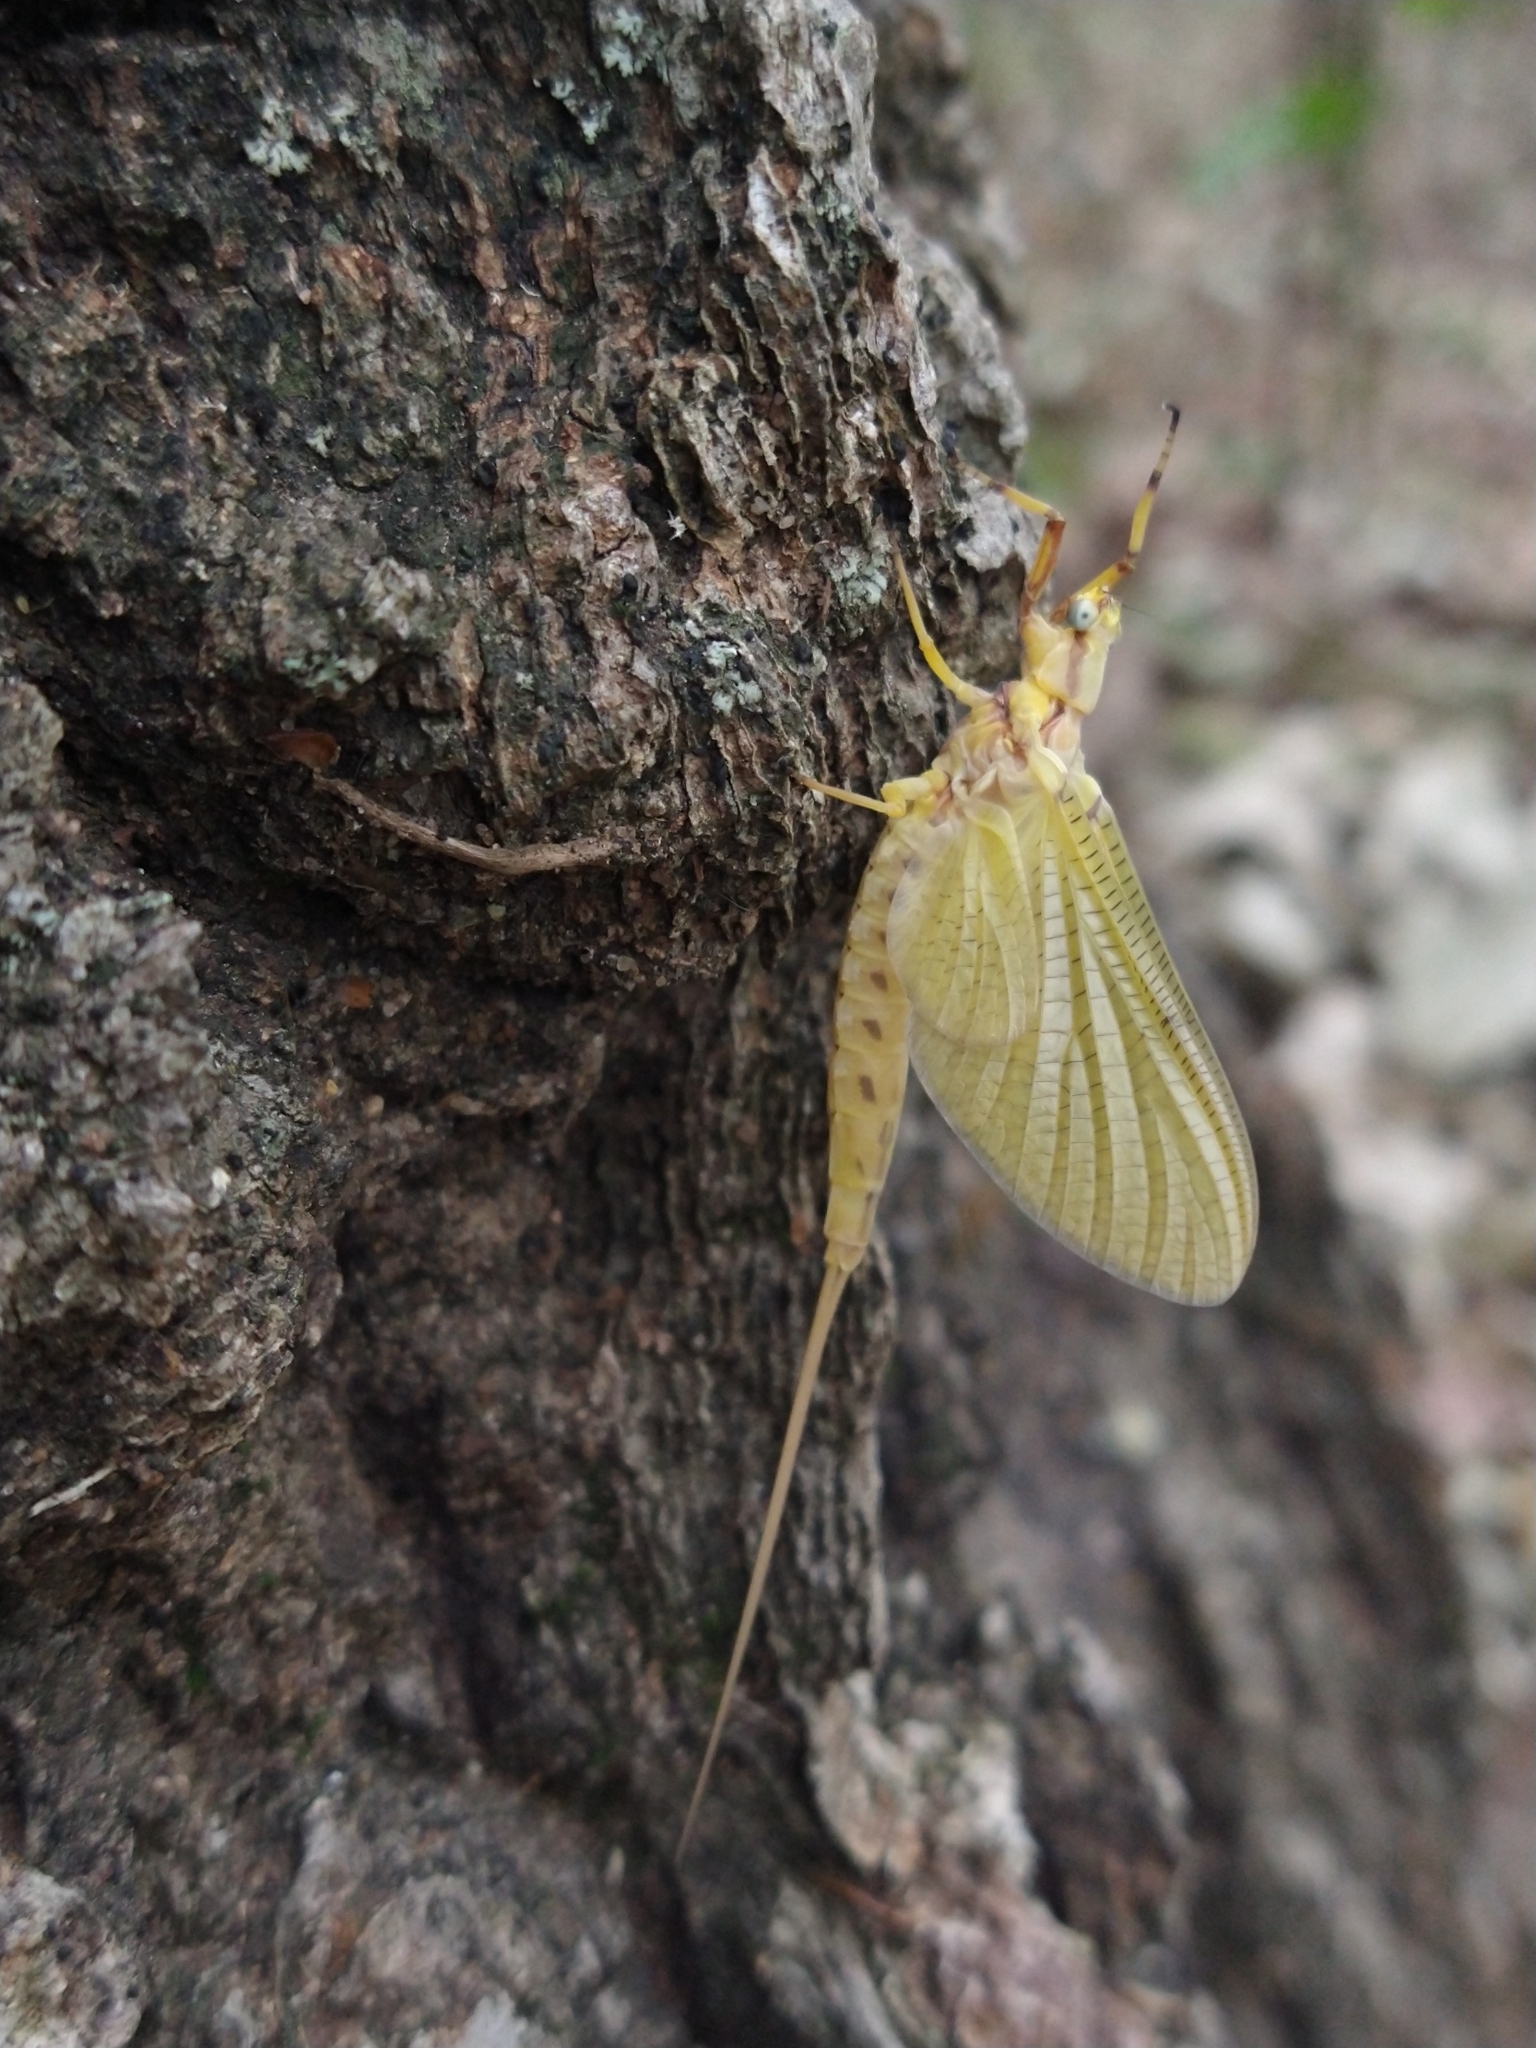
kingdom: Animalia
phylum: Arthropoda
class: Insecta
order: Ephemeroptera
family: Ephemeridae
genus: Hexagenia
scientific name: Hexagenia limbata
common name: Giant mayfly
